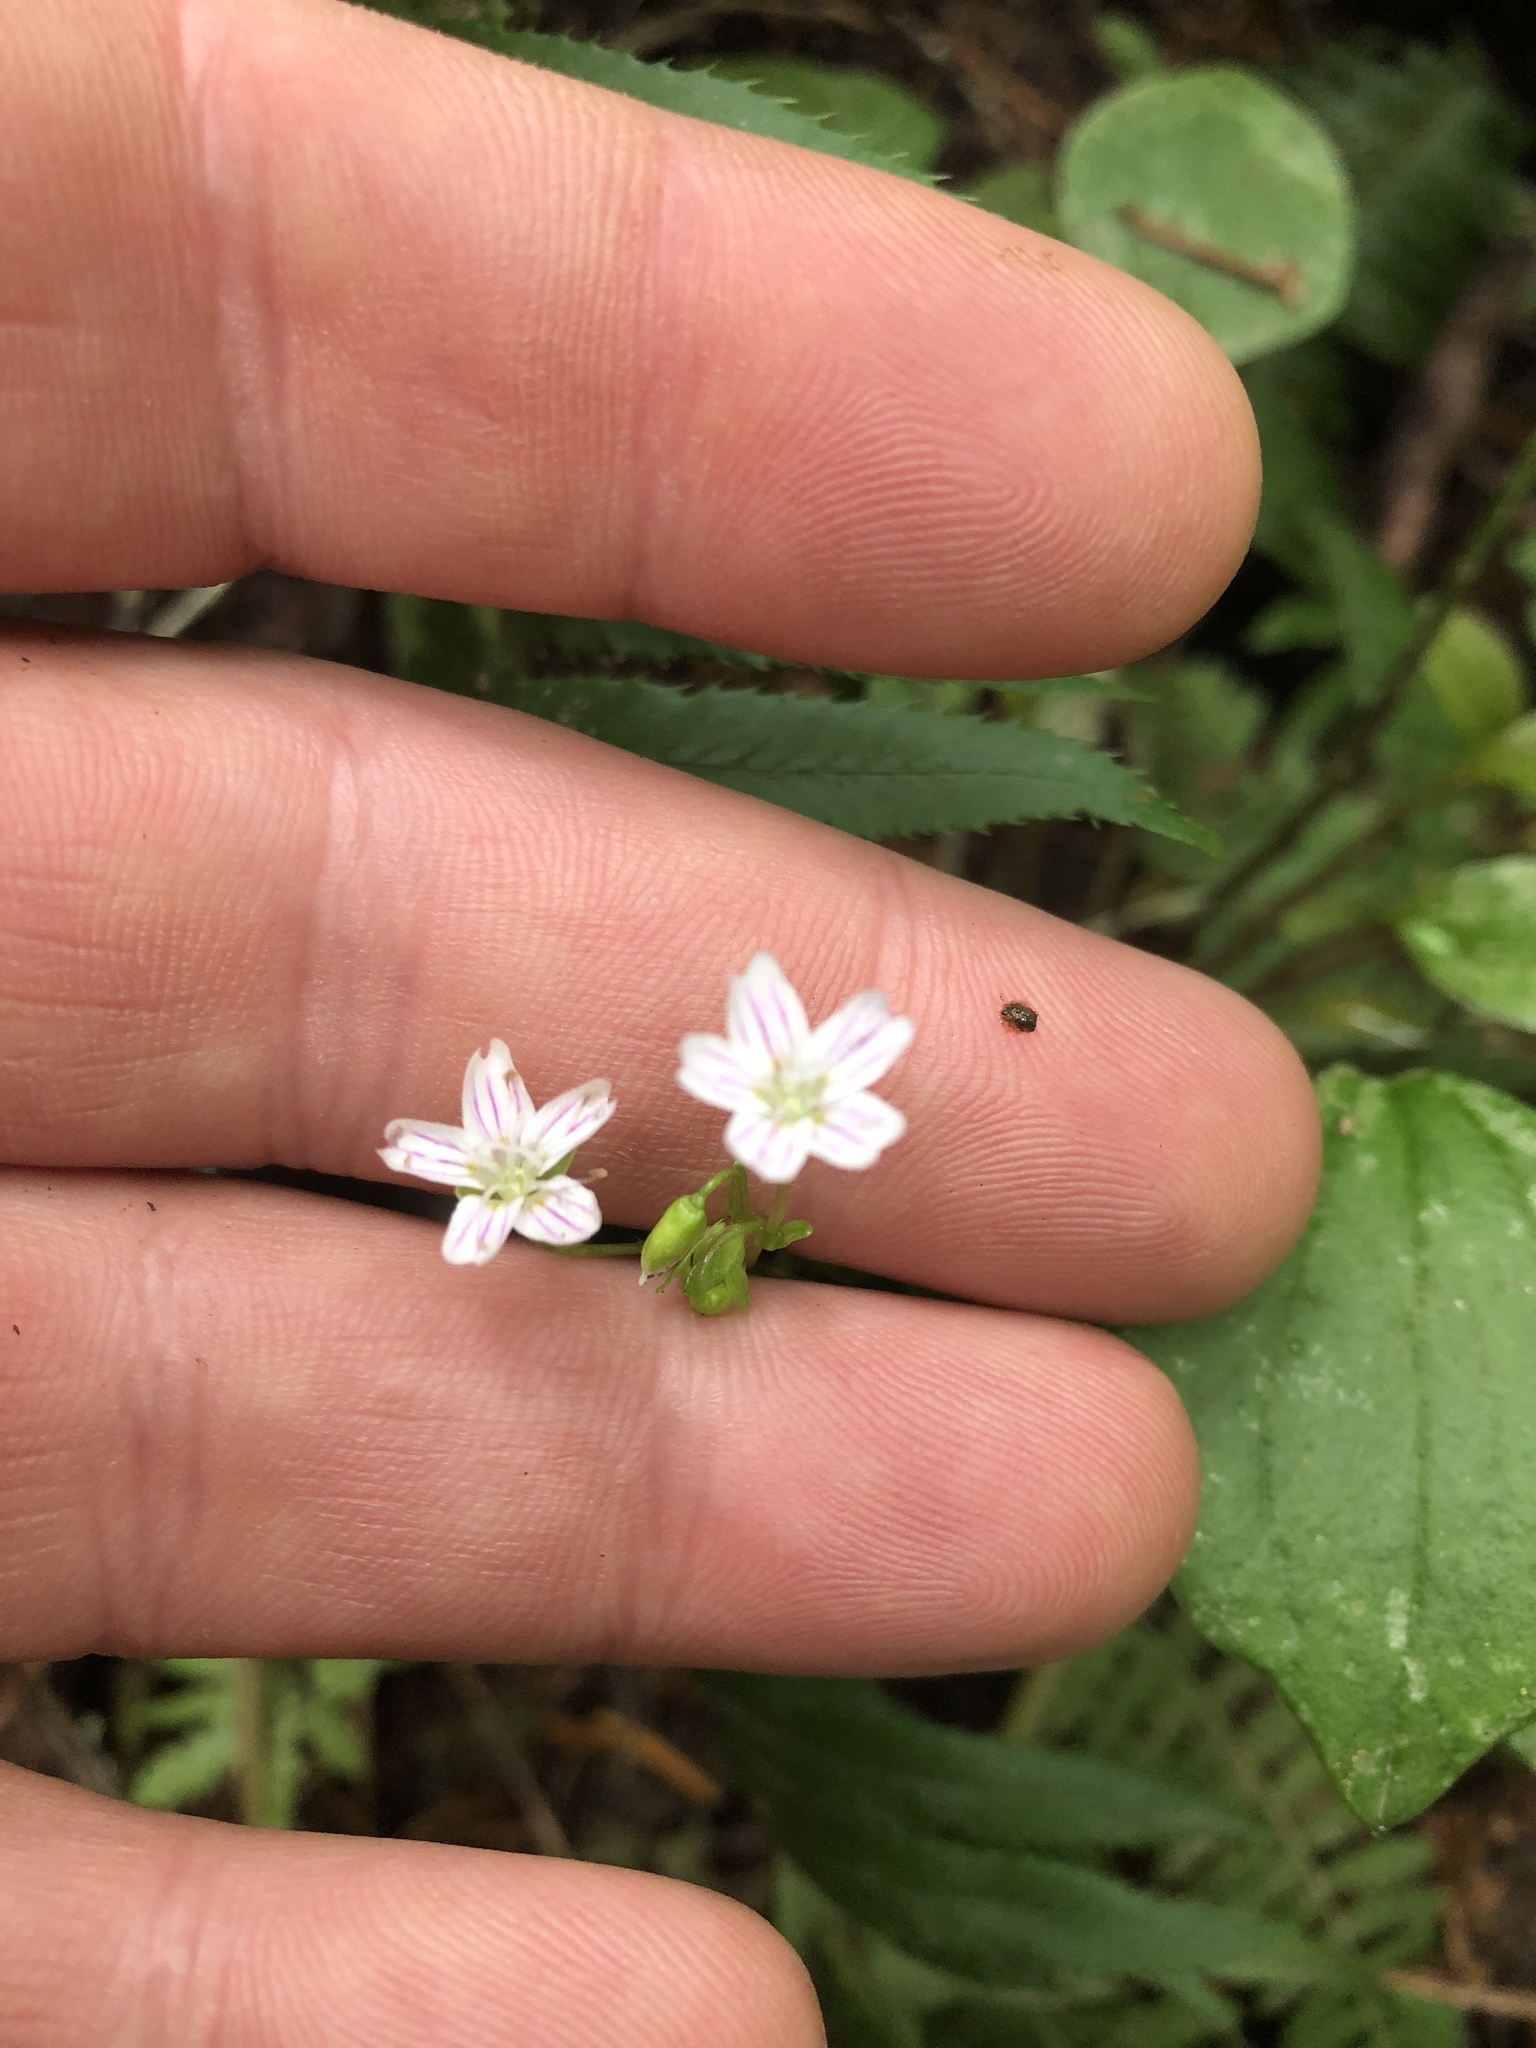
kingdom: Plantae
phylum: Tracheophyta
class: Magnoliopsida
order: Caryophyllales
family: Montiaceae
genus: Claytonia
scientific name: Claytonia sibirica
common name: Pink purslane
